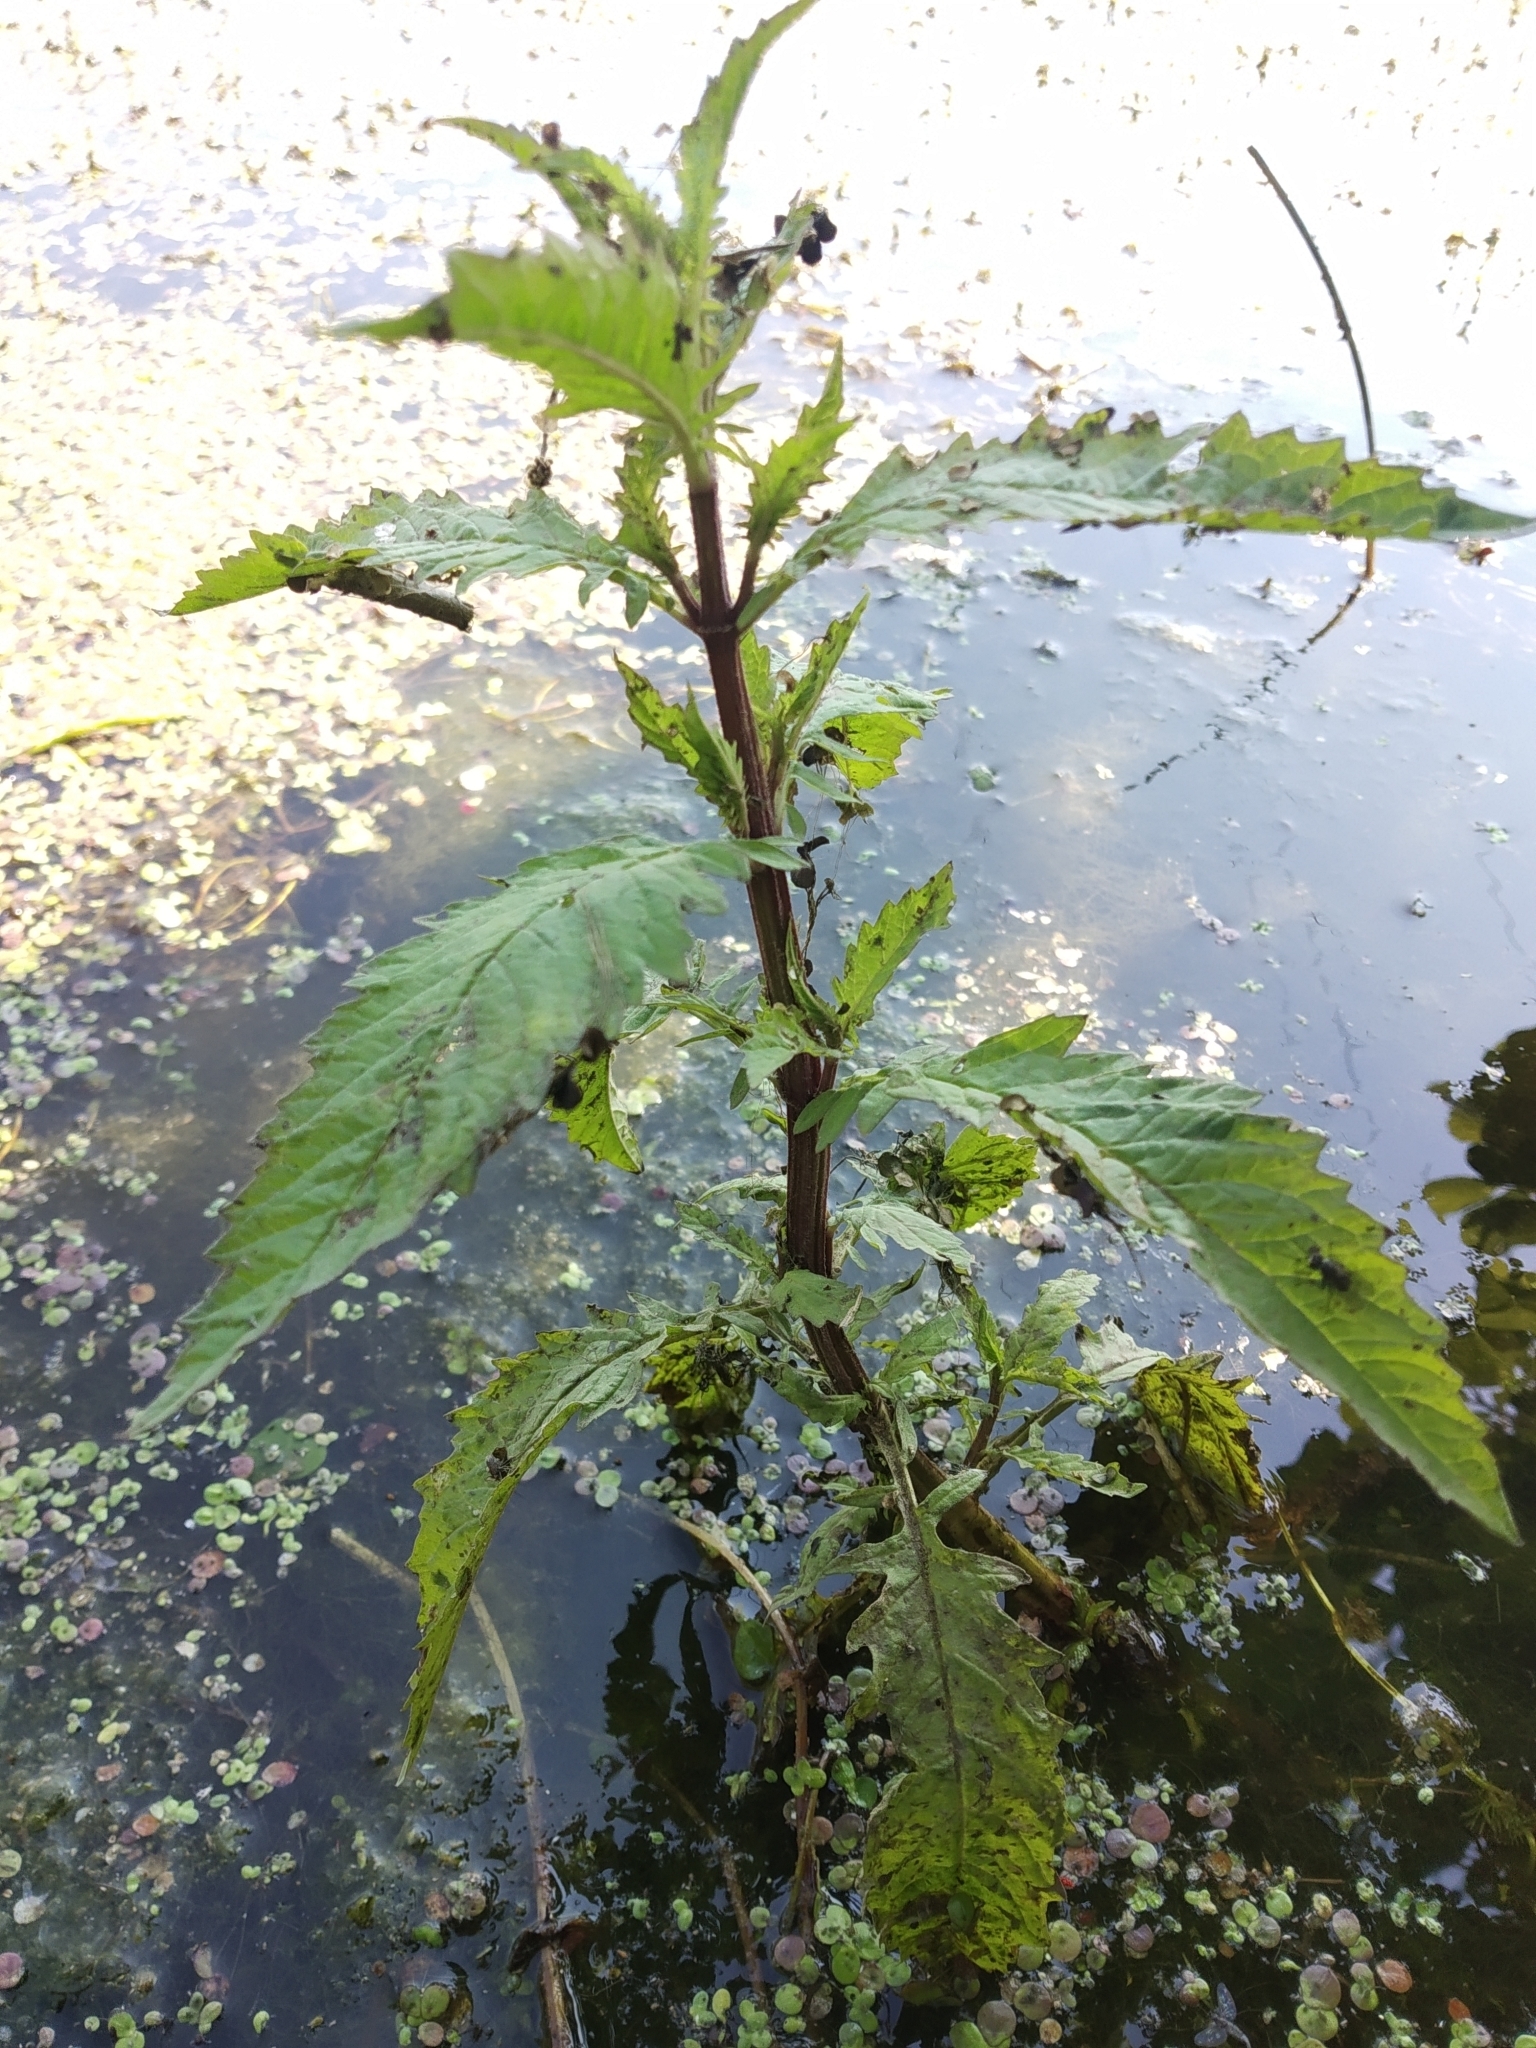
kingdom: Plantae
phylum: Tracheophyta
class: Magnoliopsida
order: Lamiales
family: Lamiaceae
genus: Lycopus
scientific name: Lycopus europaeus
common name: European bugleweed
